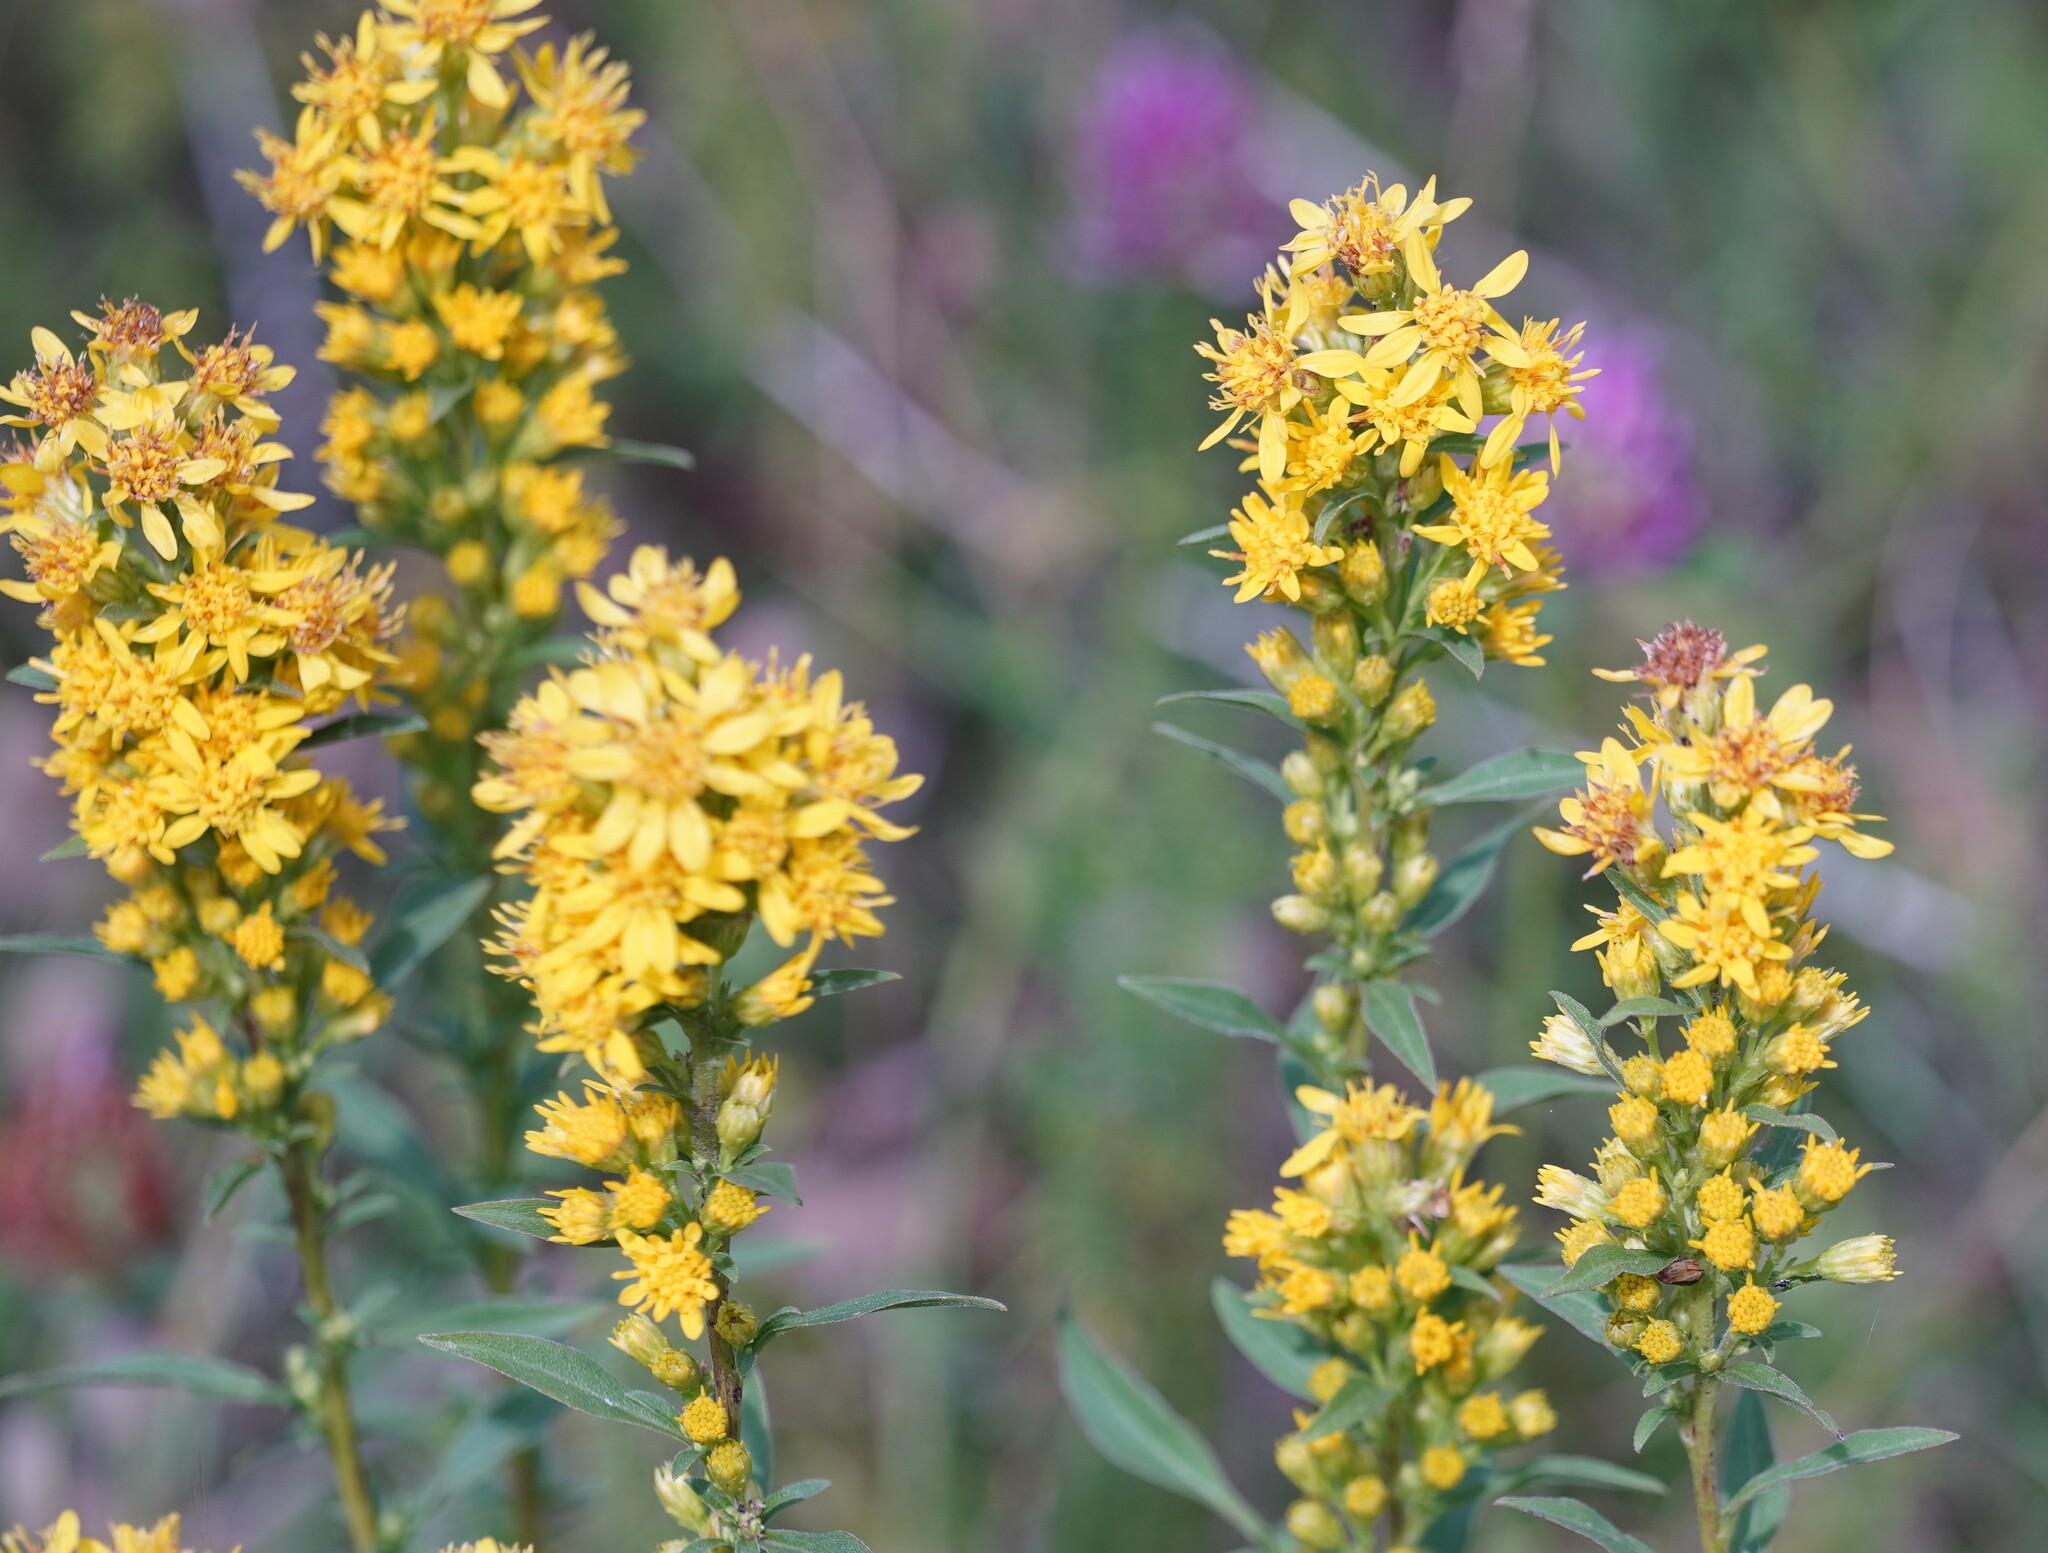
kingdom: Plantae
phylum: Tracheophyta
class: Magnoliopsida
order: Asterales
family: Asteraceae
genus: Solidago
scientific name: Solidago virgaurea
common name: Goldenrod
